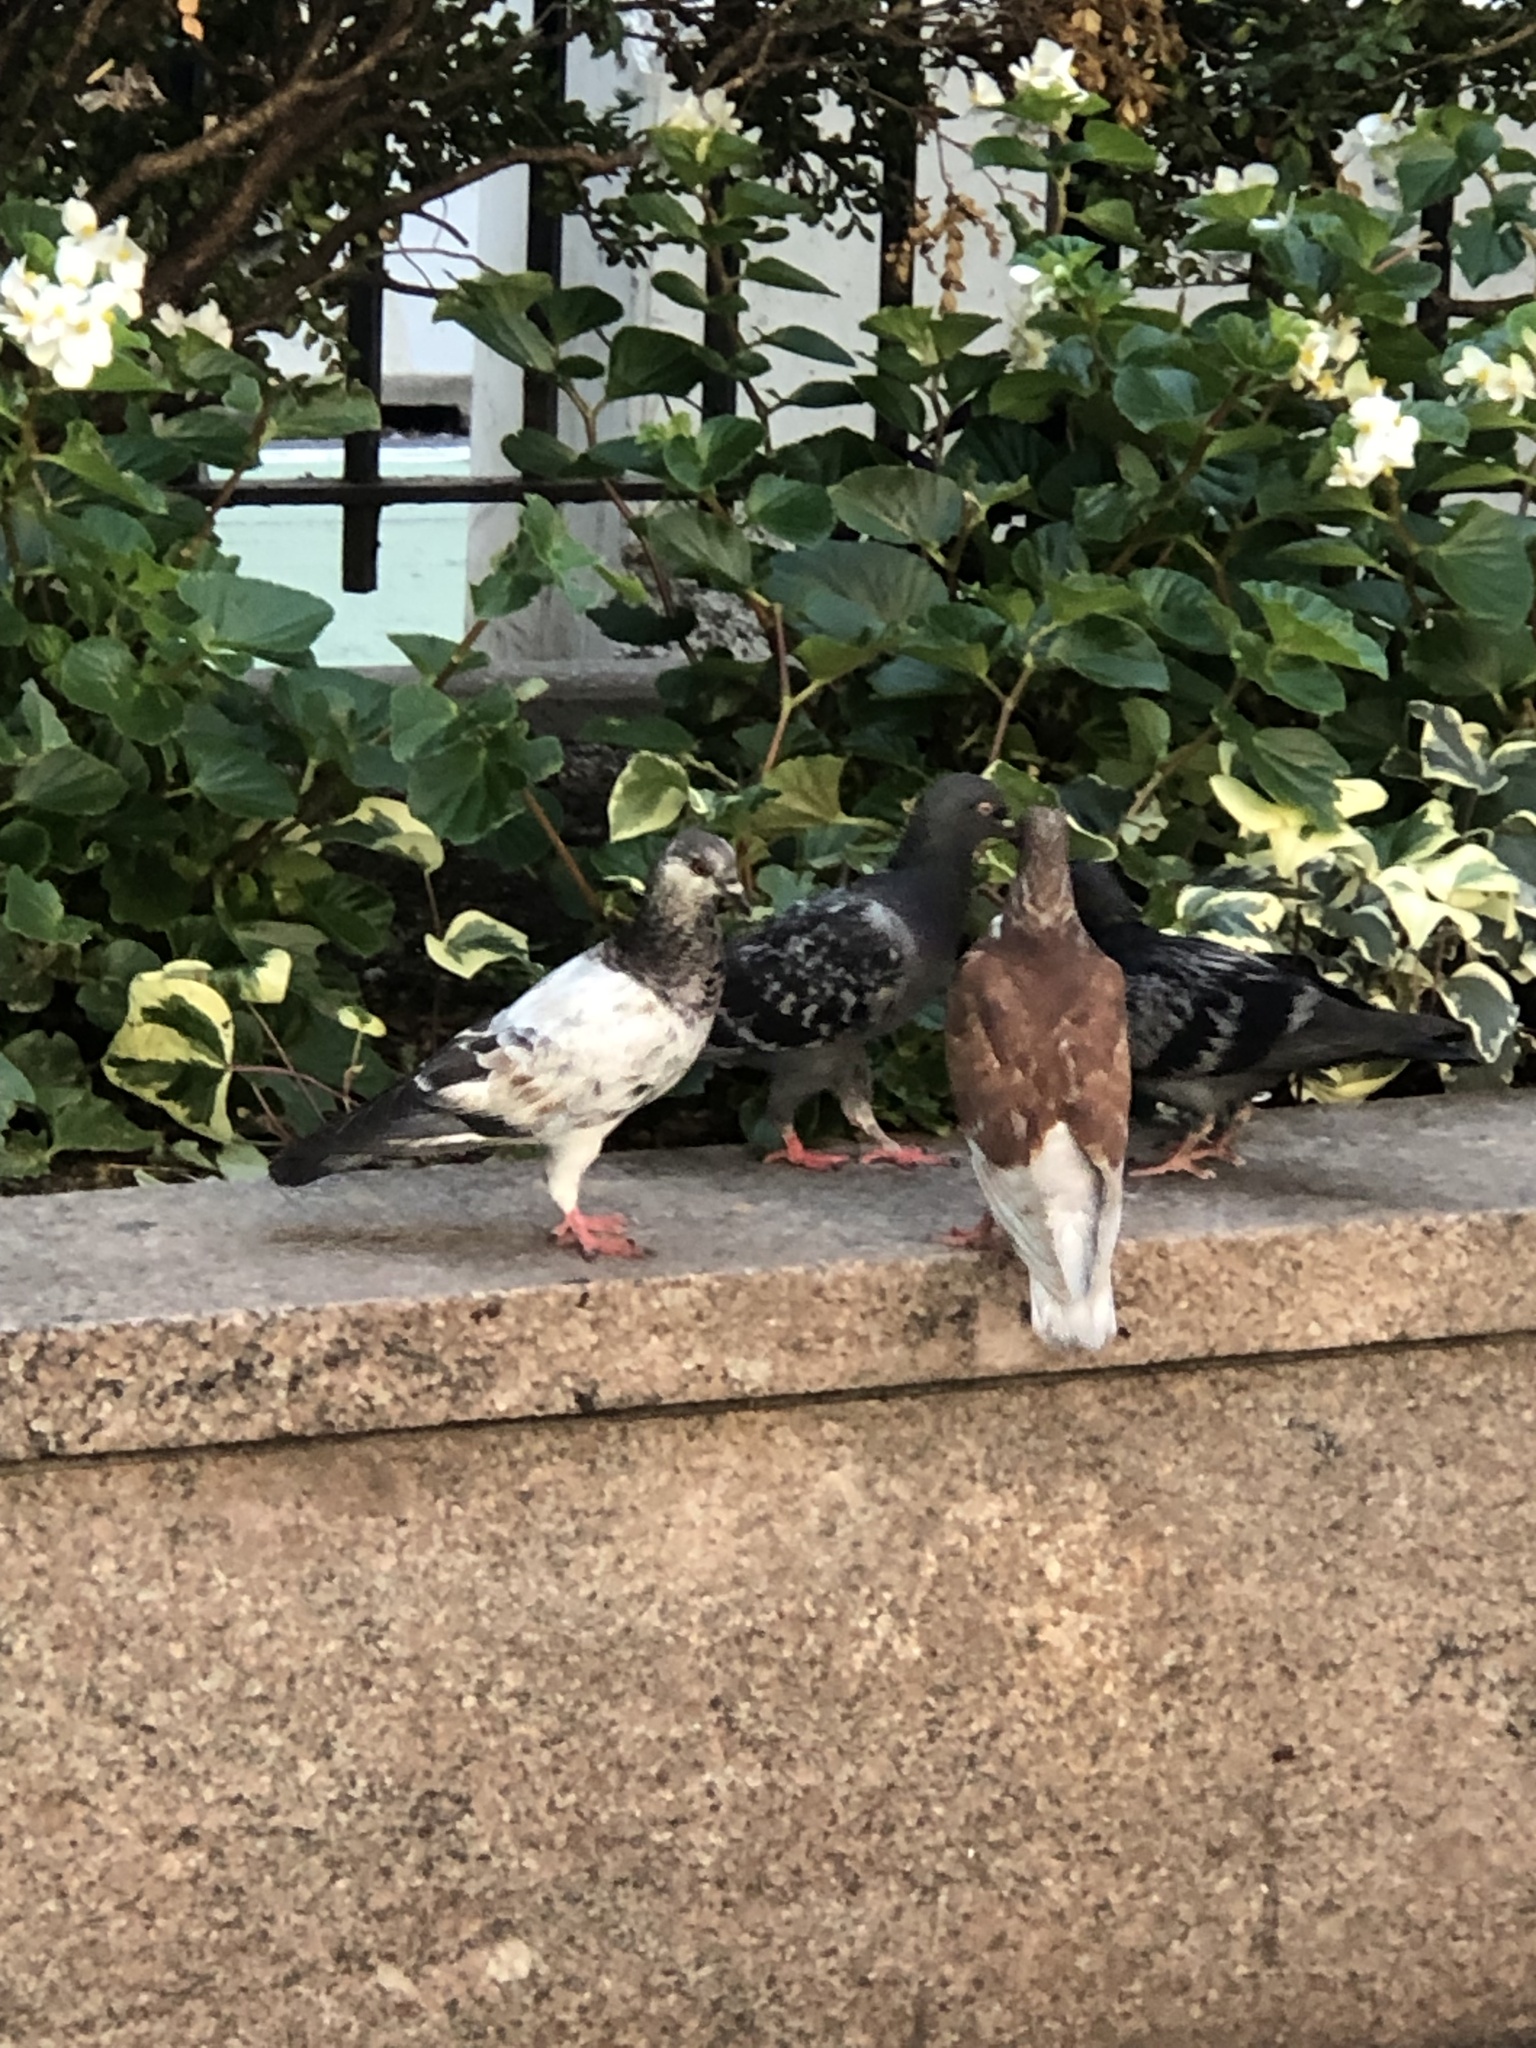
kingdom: Animalia
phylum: Chordata
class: Aves
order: Columbiformes
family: Columbidae
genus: Columba
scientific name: Columba livia
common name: Rock pigeon
